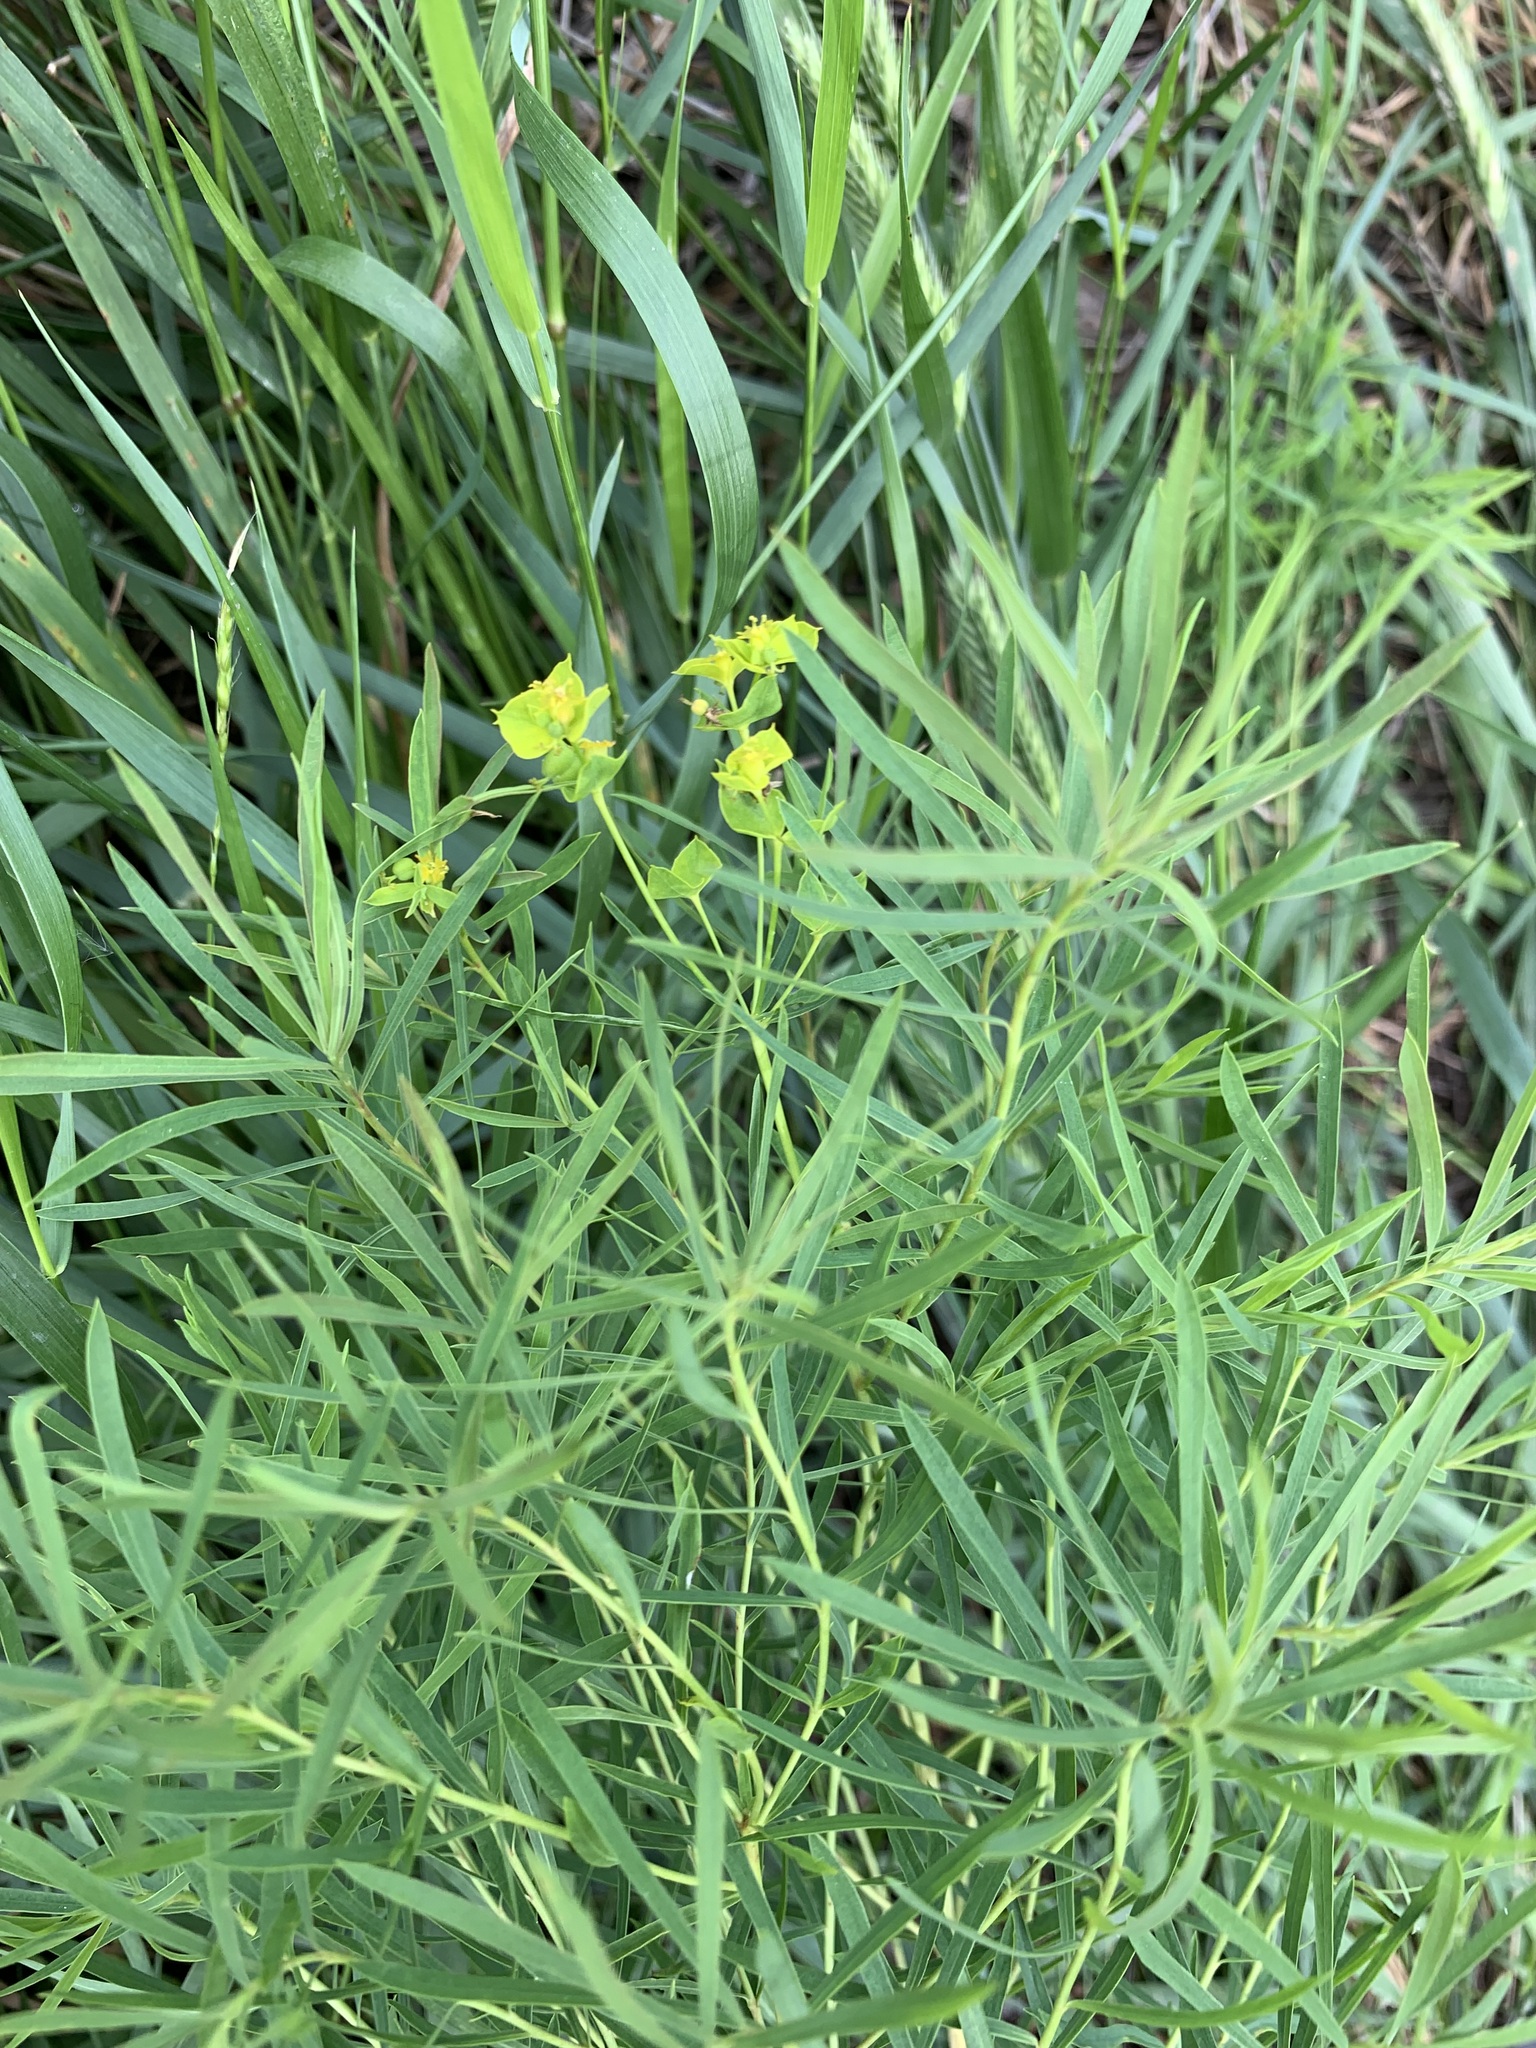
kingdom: Plantae
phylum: Tracheophyta
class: Magnoliopsida
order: Malpighiales
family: Euphorbiaceae
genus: Euphorbia
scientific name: Euphorbia uralensis
